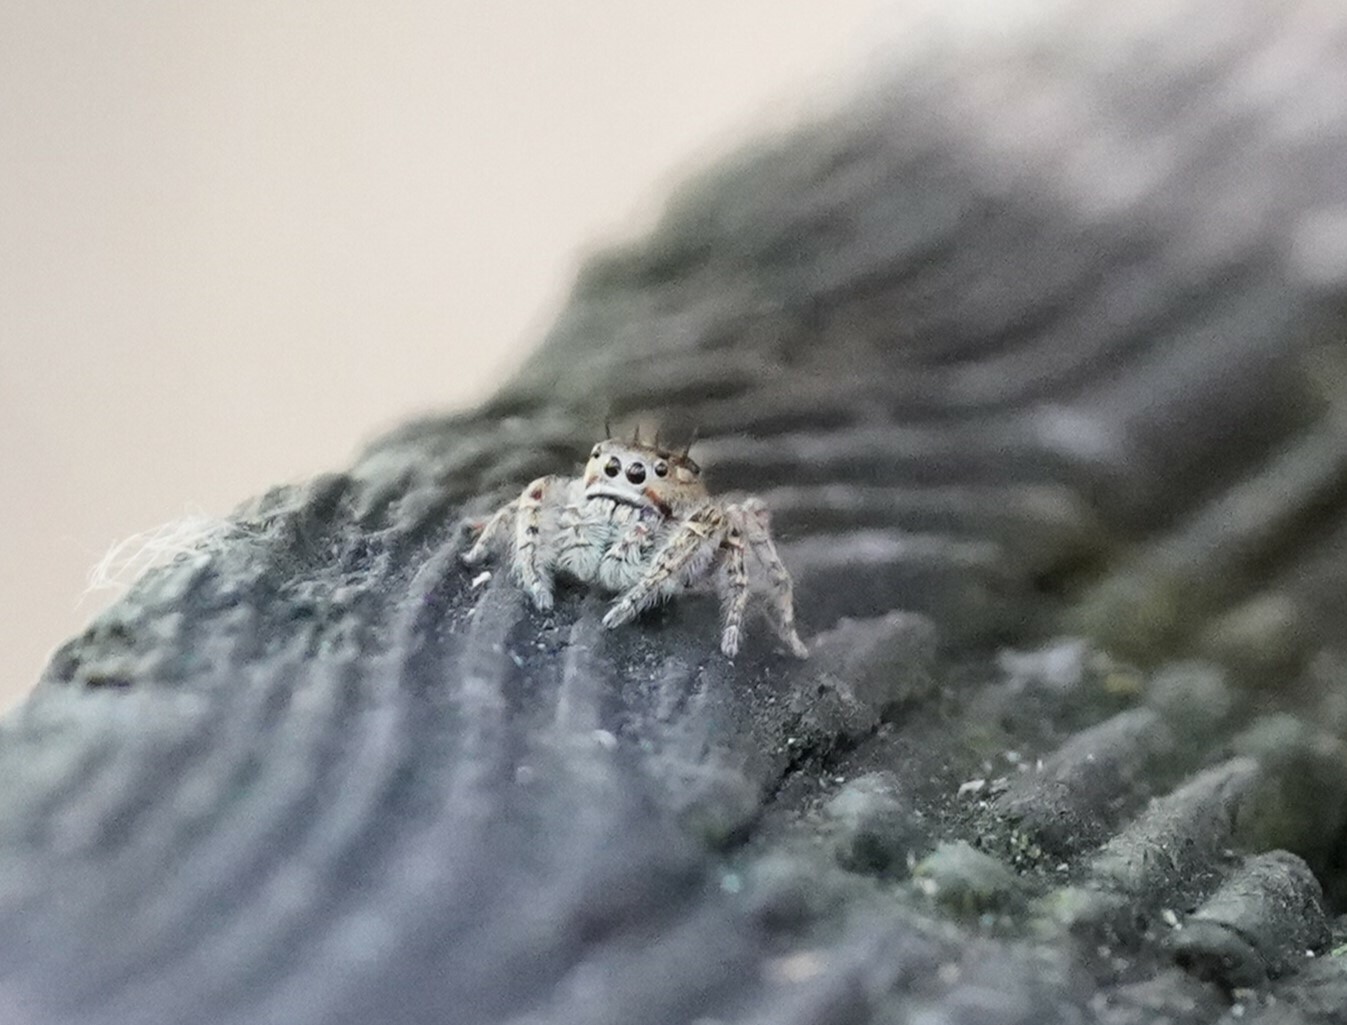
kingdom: Animalia
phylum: Arthropoda
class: Arachnida
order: Araneae
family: Salticidae
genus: Phidippus
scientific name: Phidippus putnami
